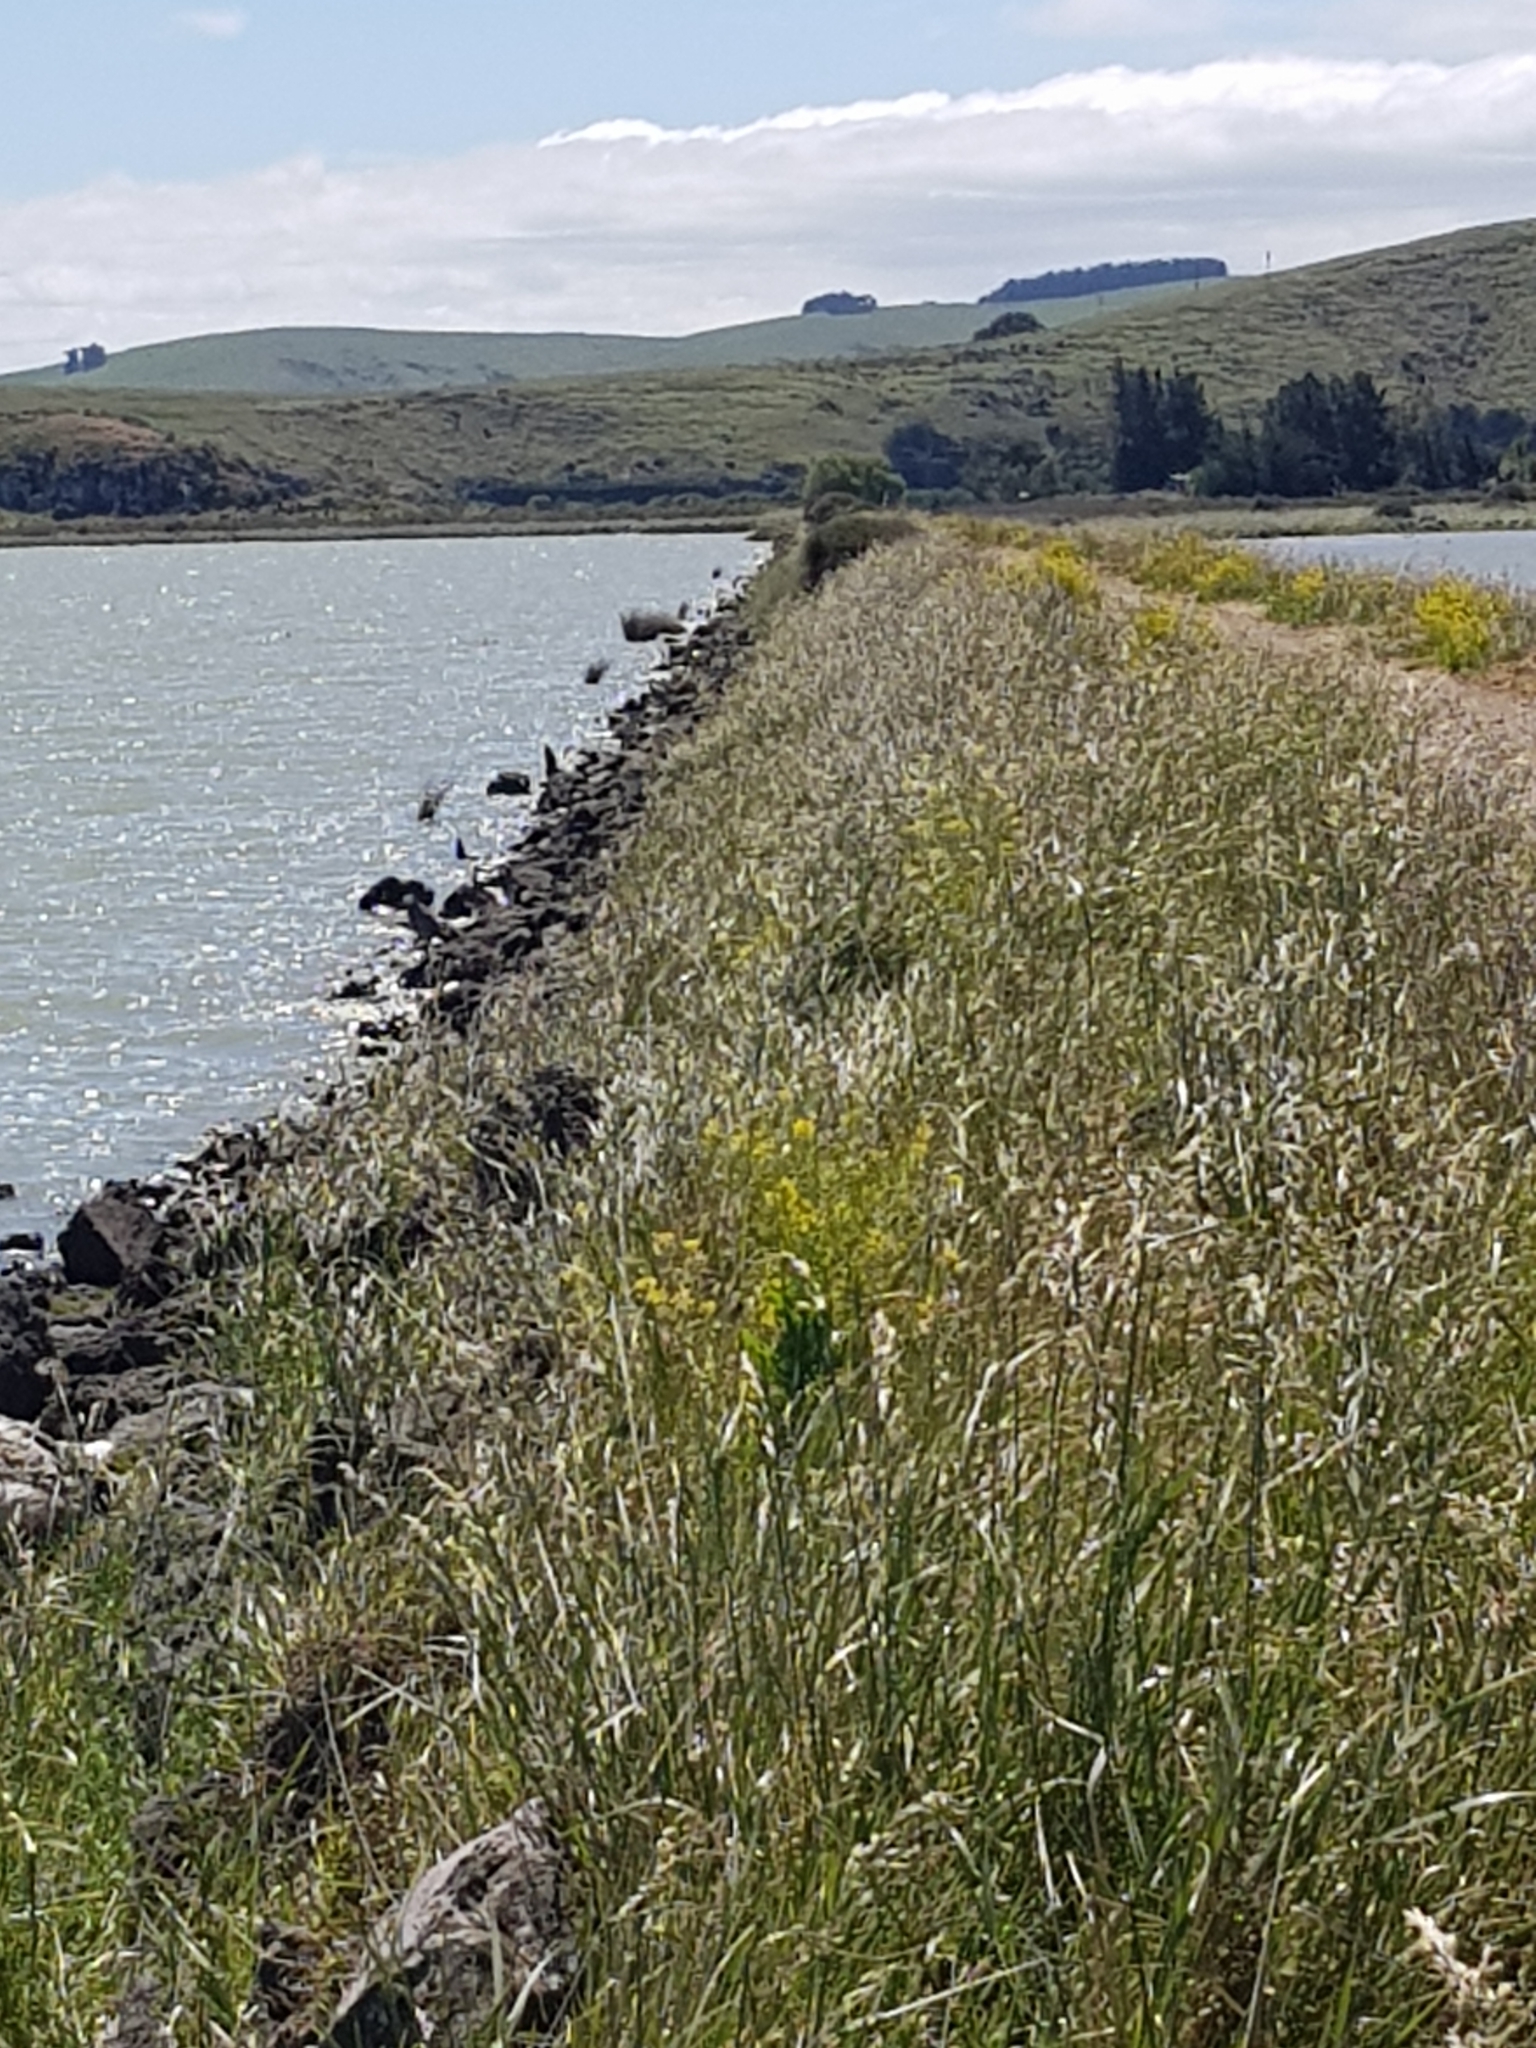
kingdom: Animalia
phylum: Chordata
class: Aves
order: Pelecaniformes
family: Ardeidae
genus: Egretta
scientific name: Egretta novaehollandiae
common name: White-faced heron
